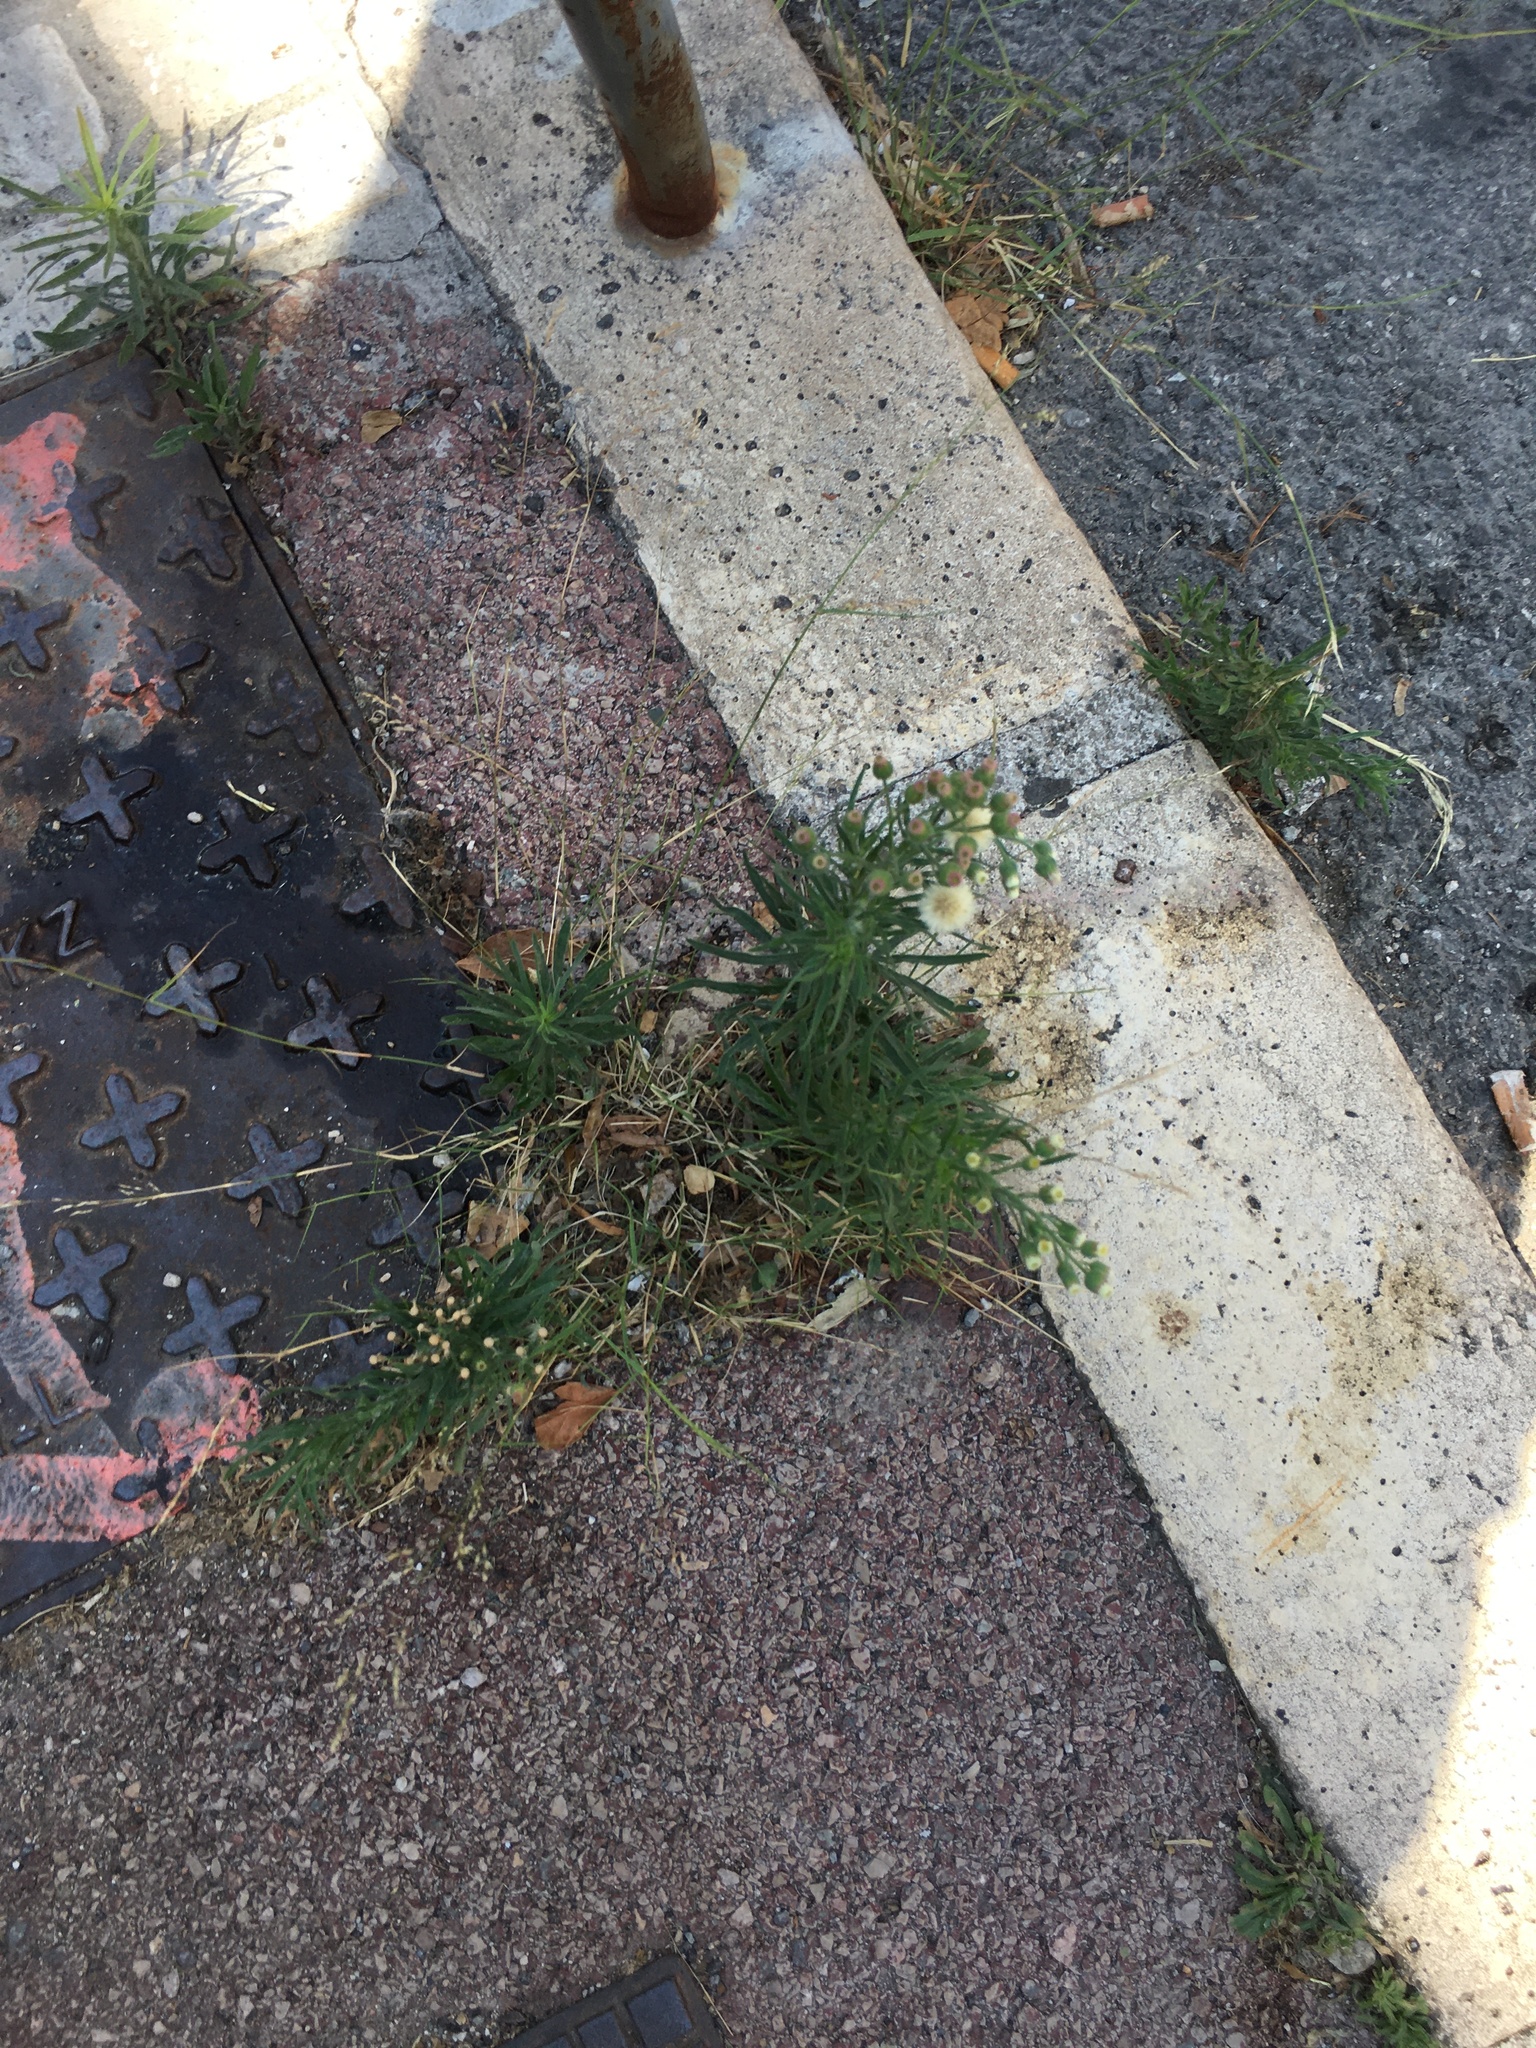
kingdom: Plantae
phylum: Tracheophyta
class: Magnoliopsida
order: Asterales
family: Asteraceae
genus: Erigeron
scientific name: Erigeron bonariensis
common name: Argentine fleabane
